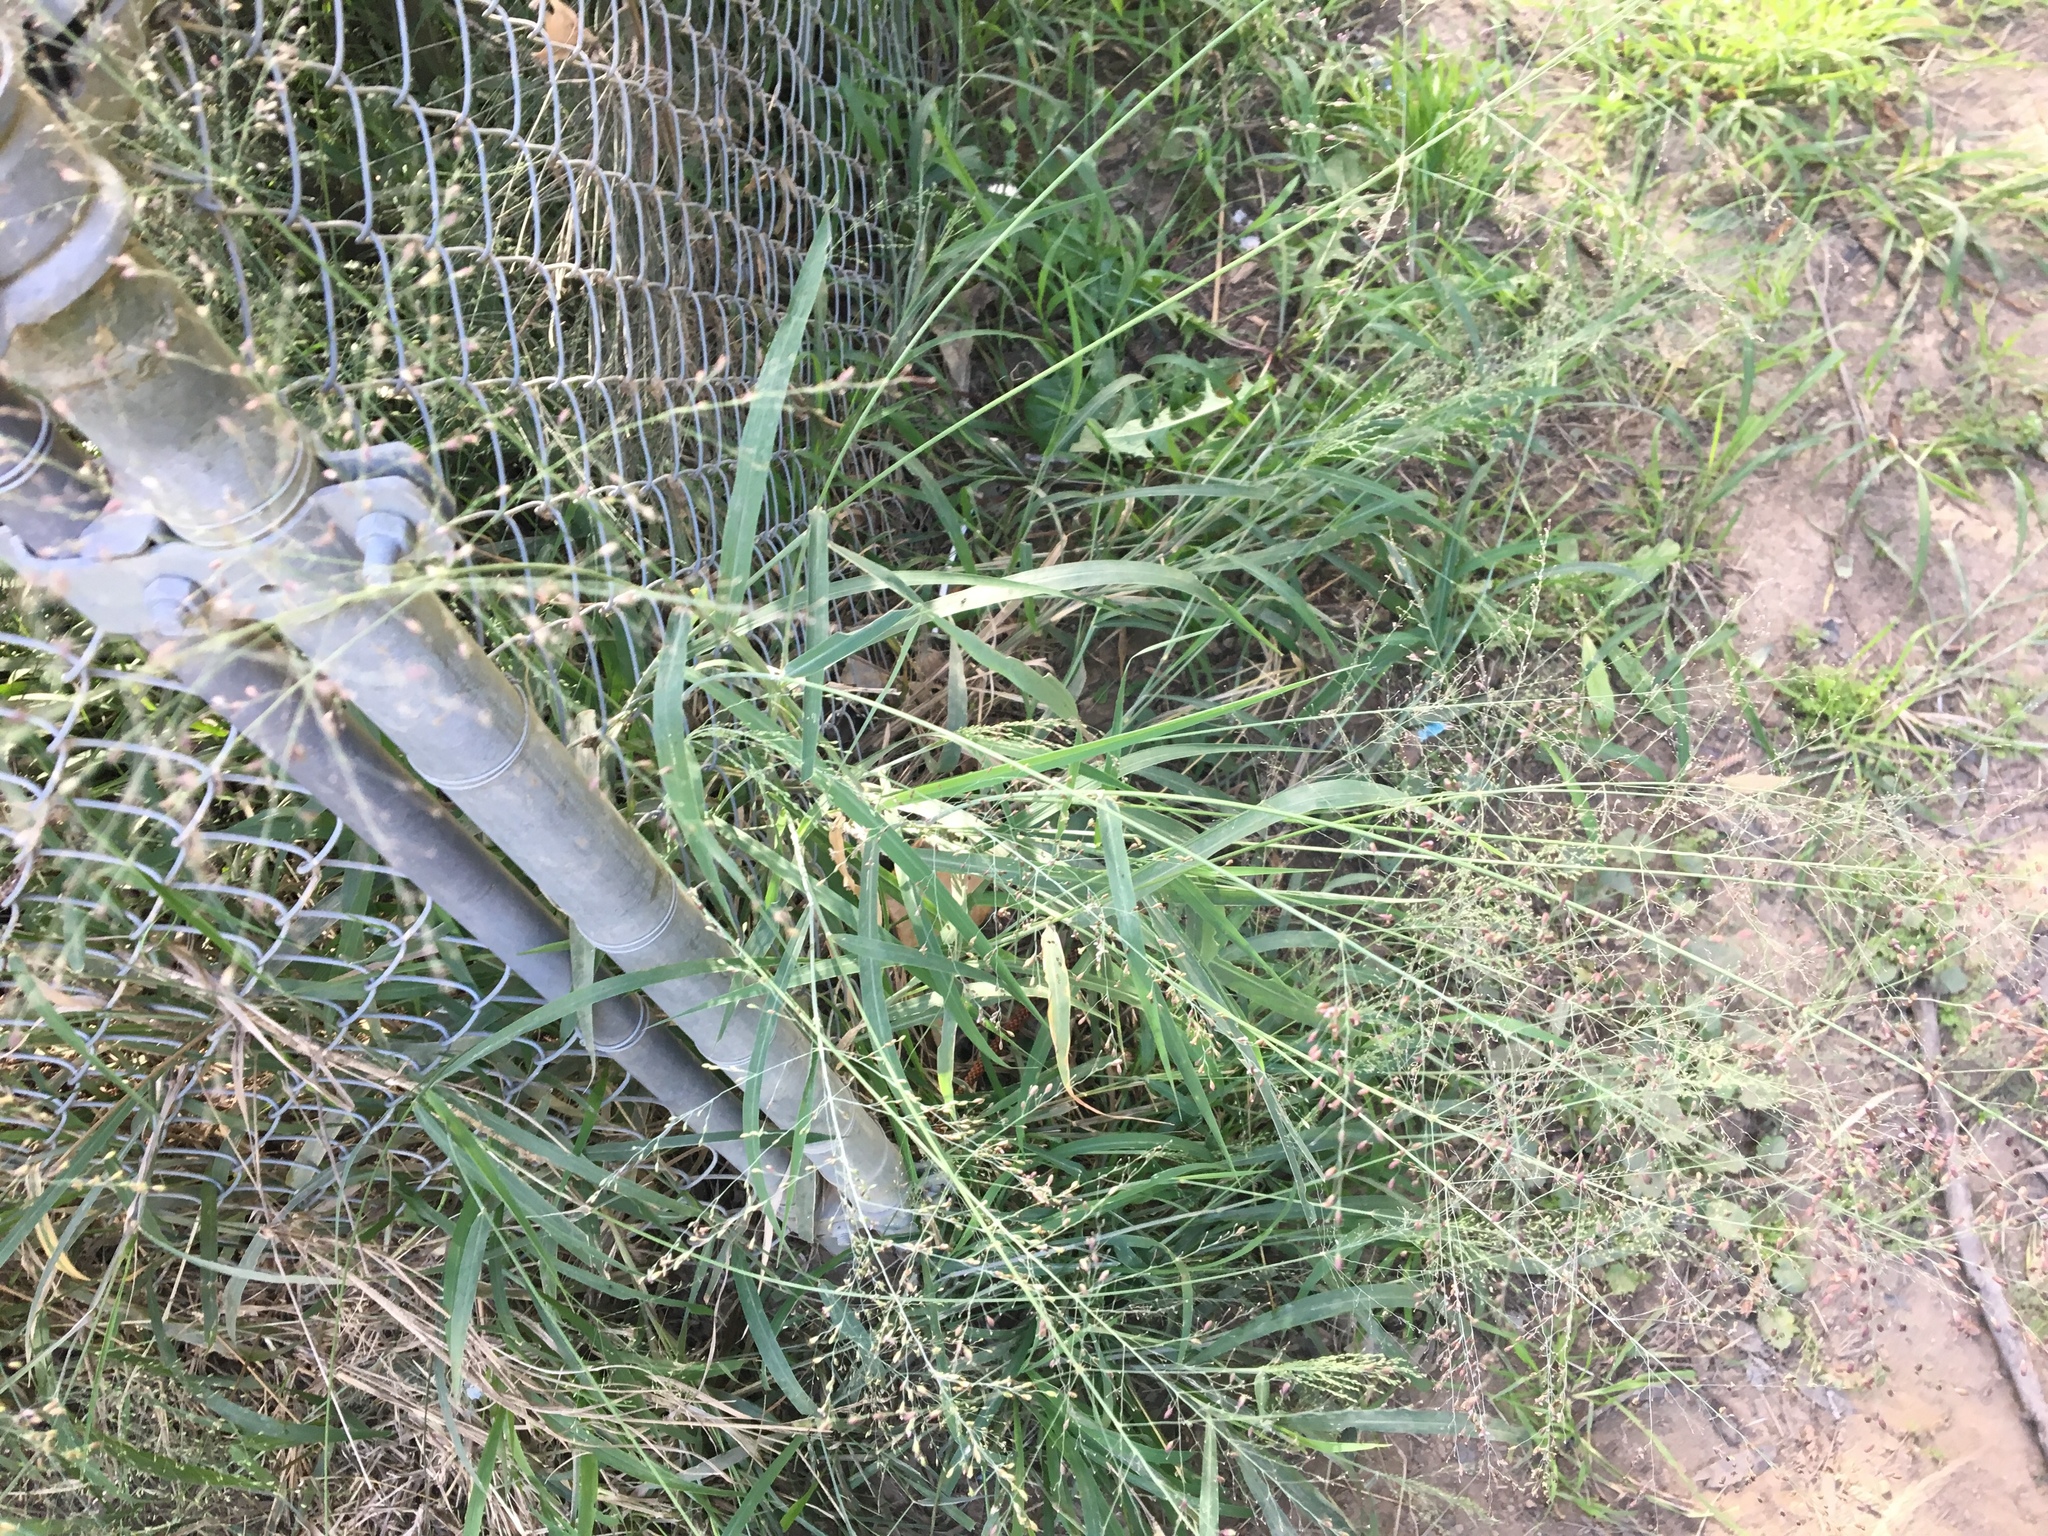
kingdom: Plantae
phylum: Tracheophyta
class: Liliopsida
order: Poales
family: Poaceae
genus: Megathyrsus
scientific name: Megathyrsus maximus
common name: Guineagrass
